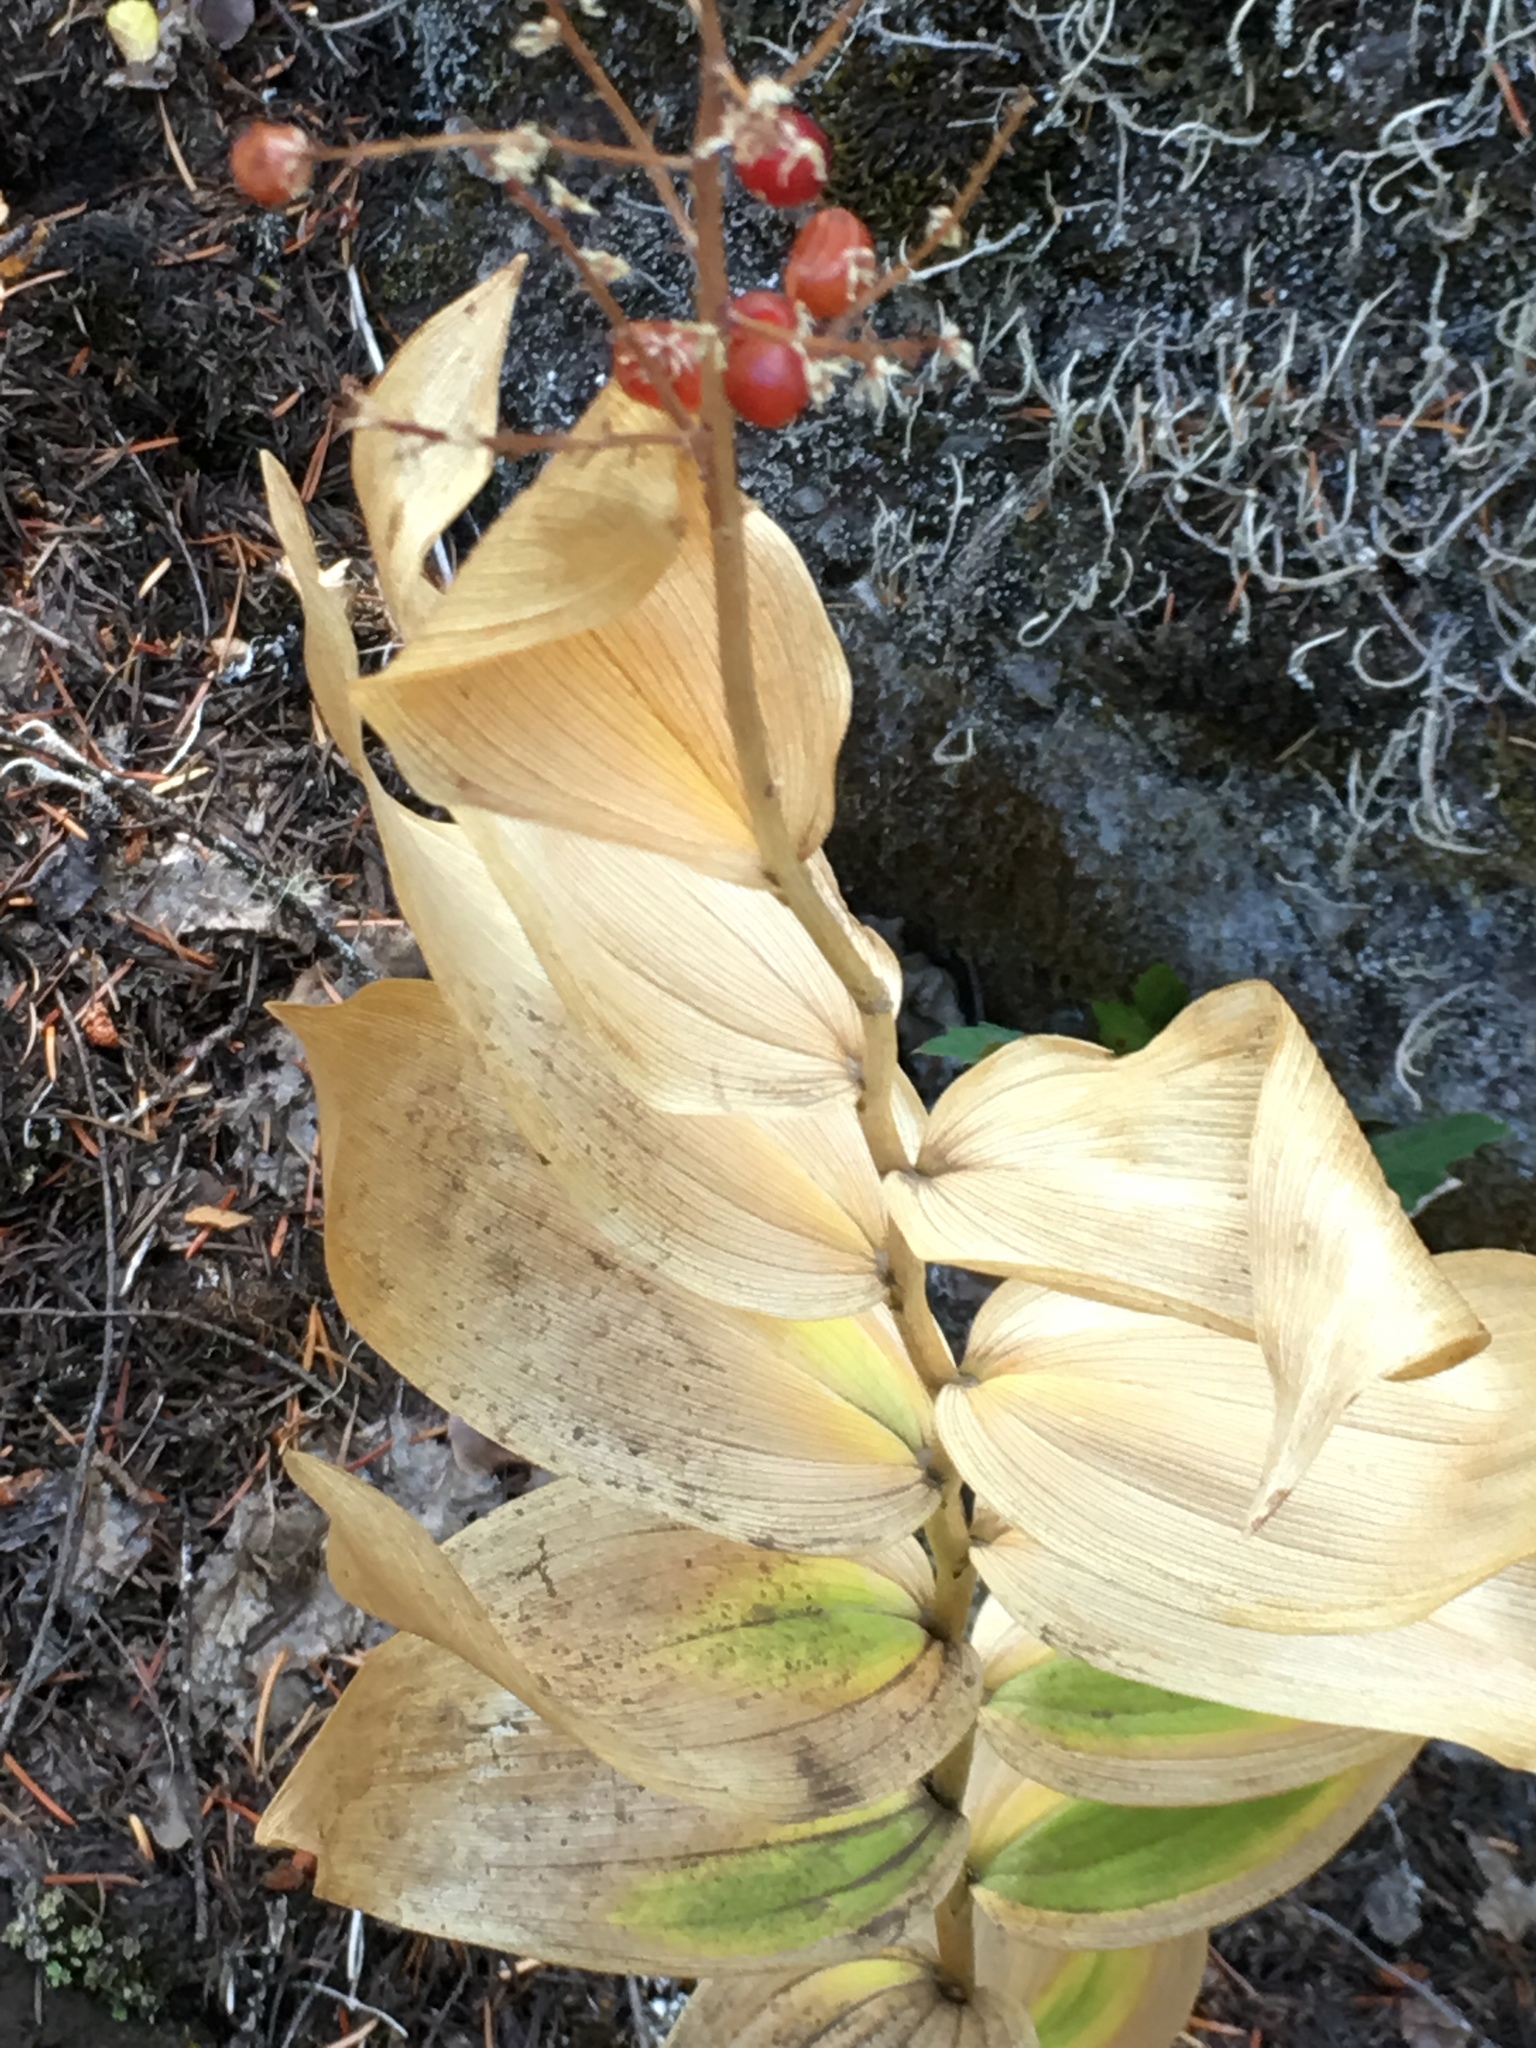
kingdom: Plantae
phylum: Tracheophyta
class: Liliopsida
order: Asparagales
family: Asparagaceae
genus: Maianthemum
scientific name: Maianthemum racemosum
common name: False spikenard
